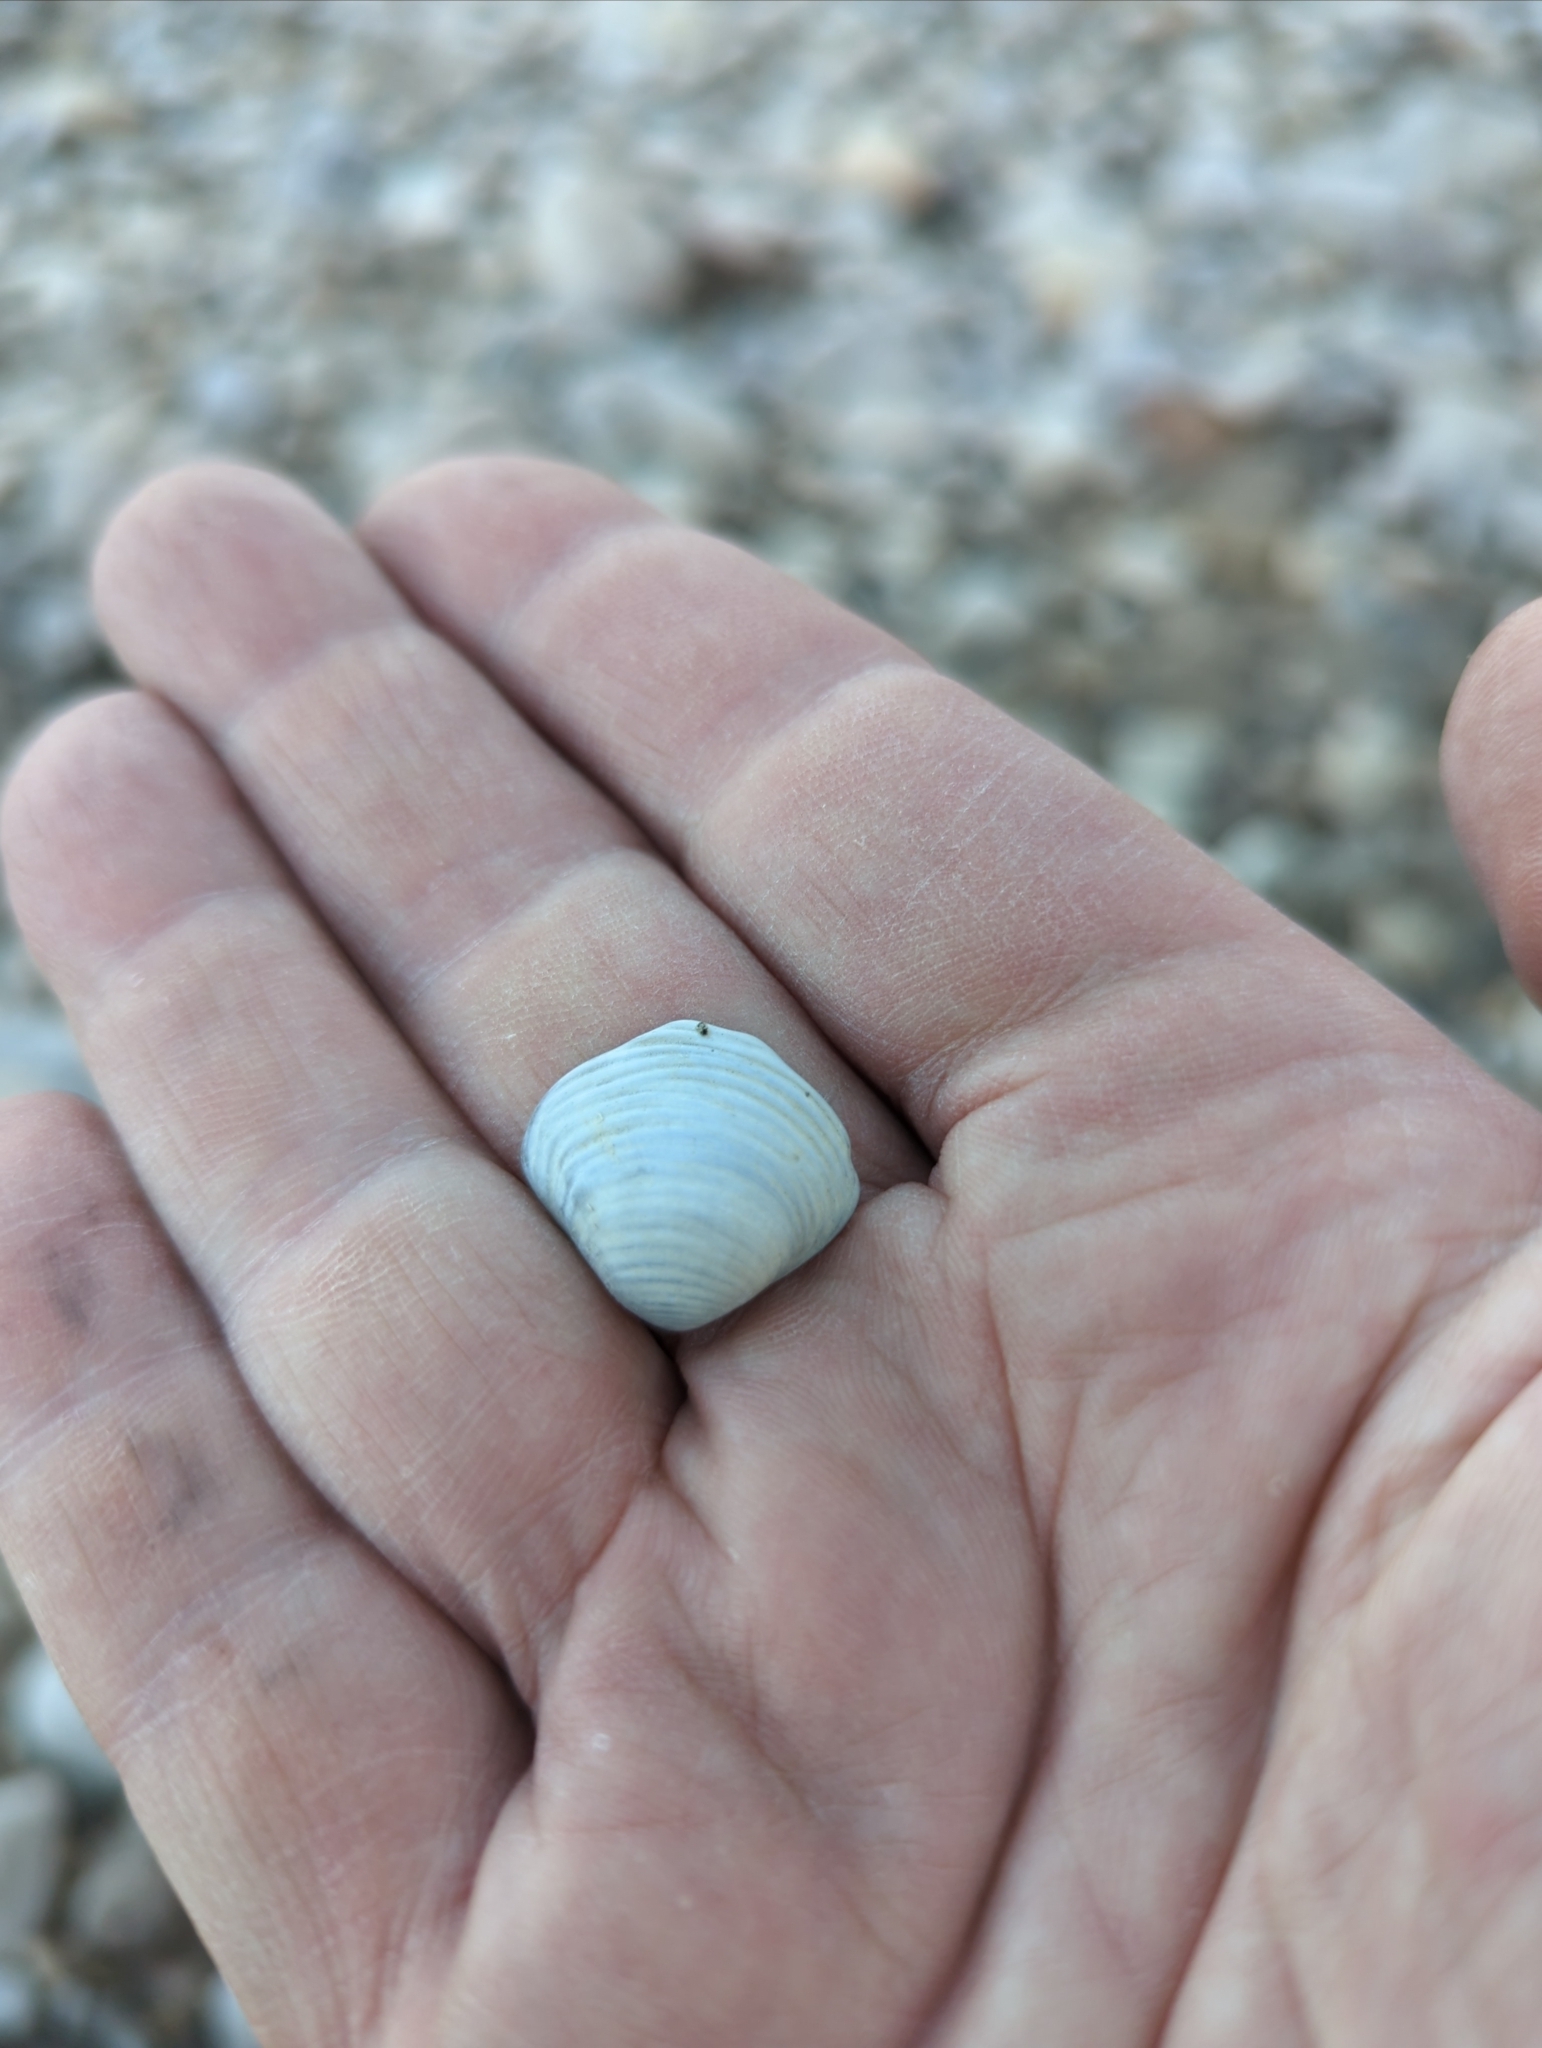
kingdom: Animalia
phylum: Mollusca
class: Bivalvia
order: Venerida
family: Cyrenidae
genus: Corbicula
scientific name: Corbicula fluminea
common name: Asian clam
